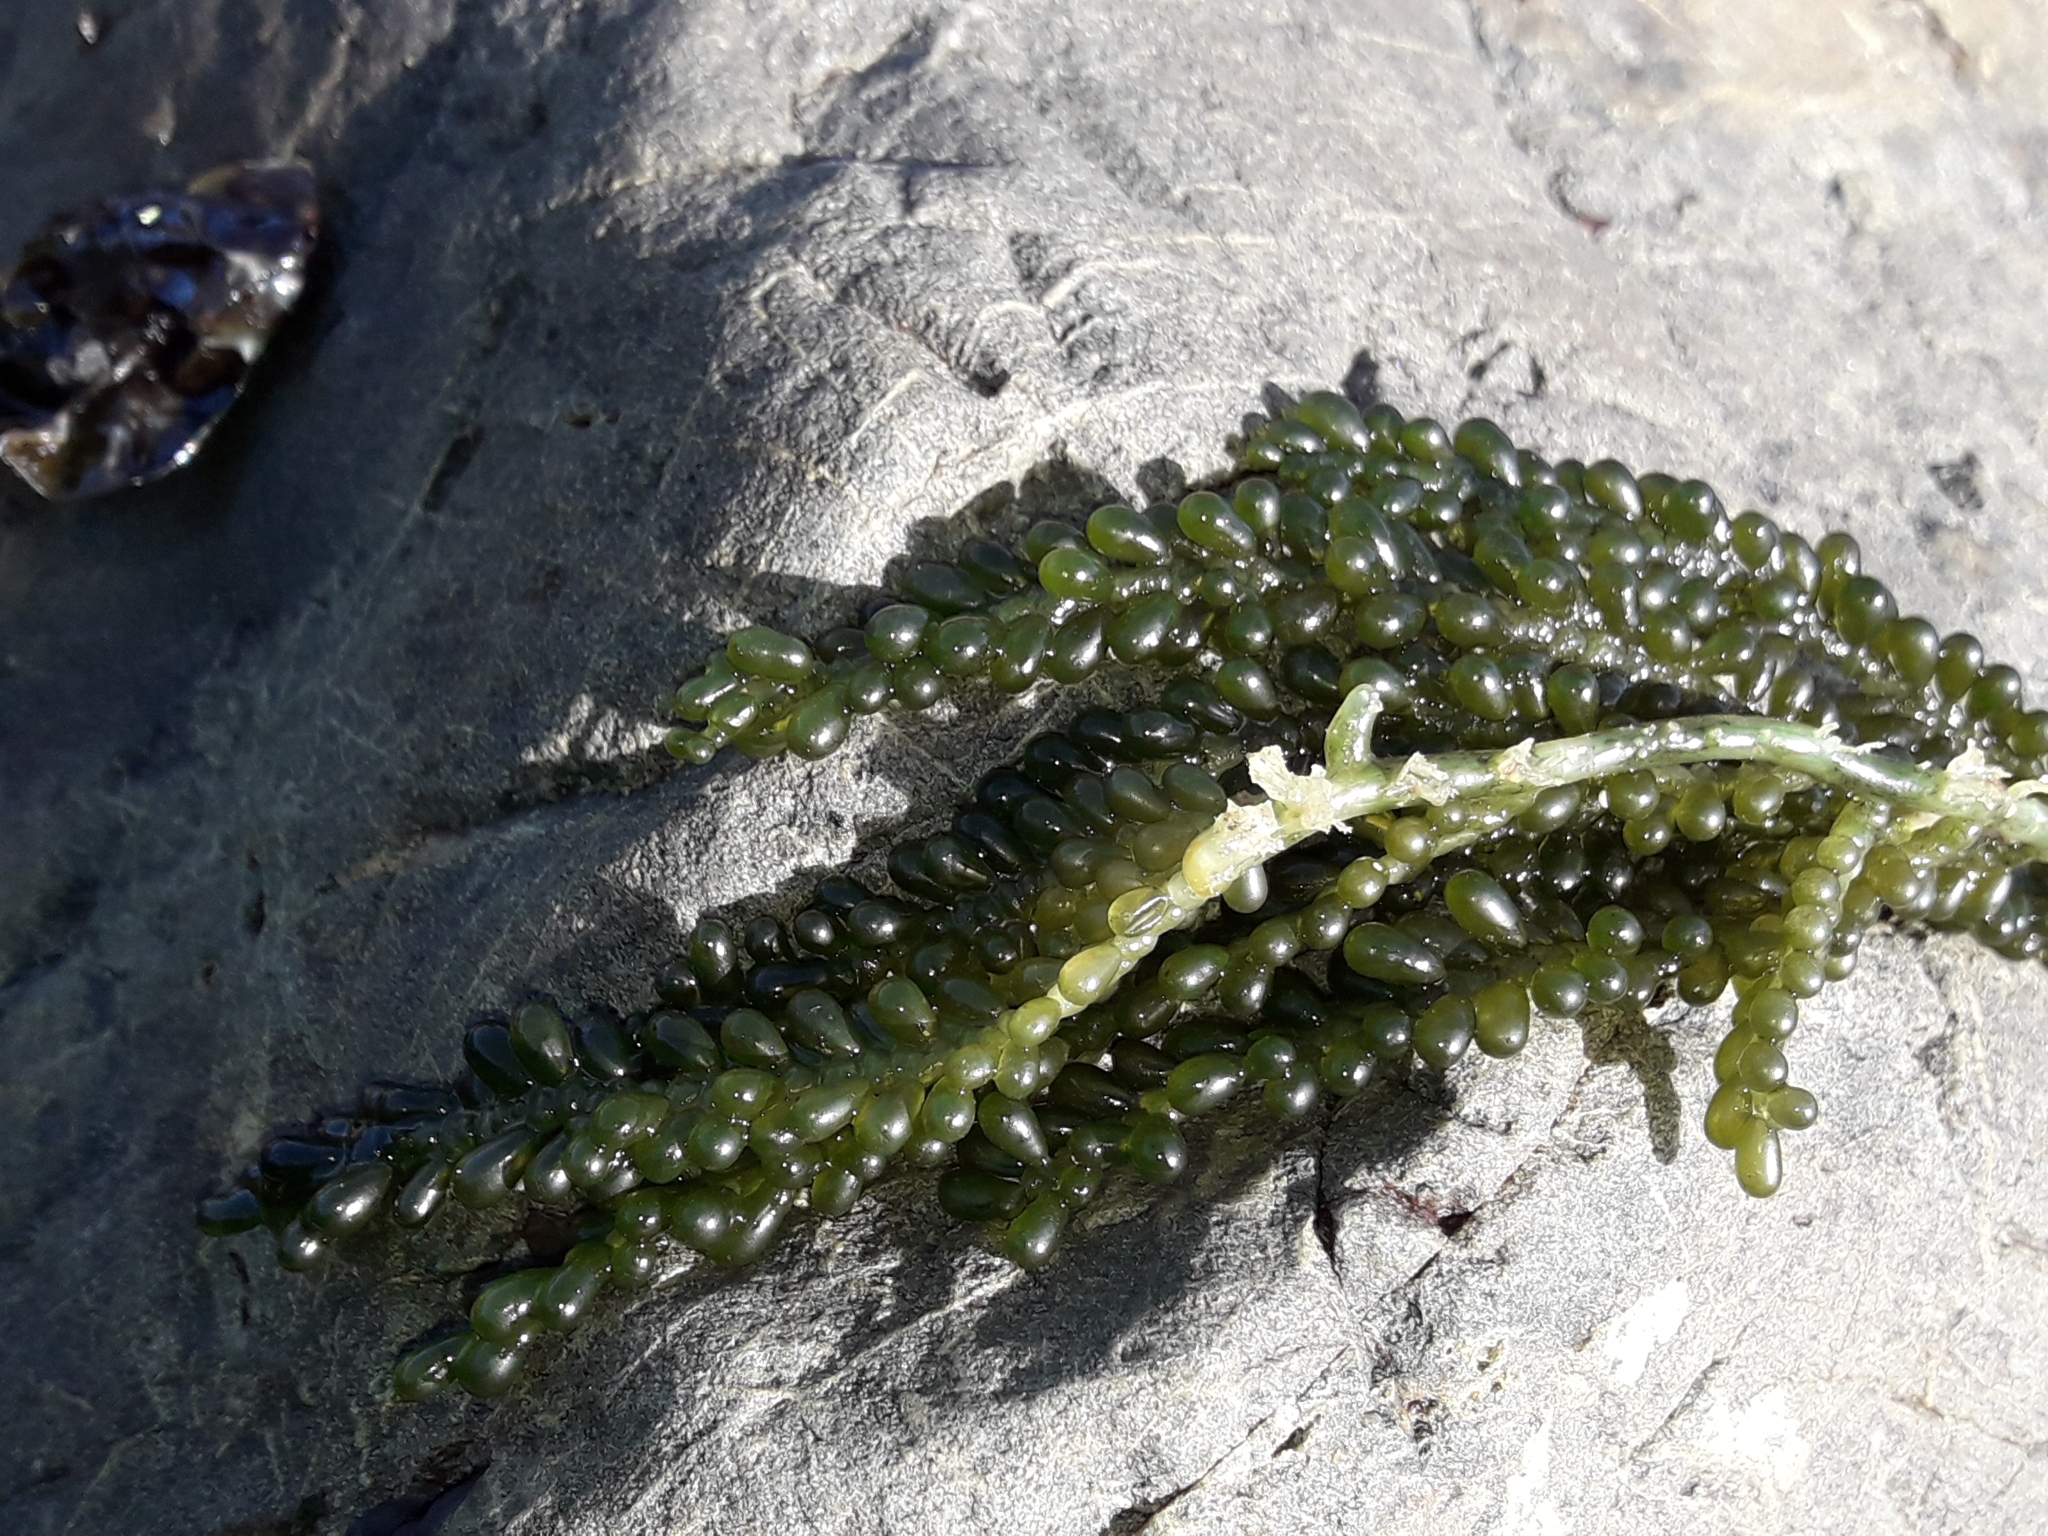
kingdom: Plantae
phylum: Chlorophyta
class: Ulvophyceae
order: Bryopsidales
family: Caulerpaceae
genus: Caulerpa
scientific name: Caulerpa geminata
